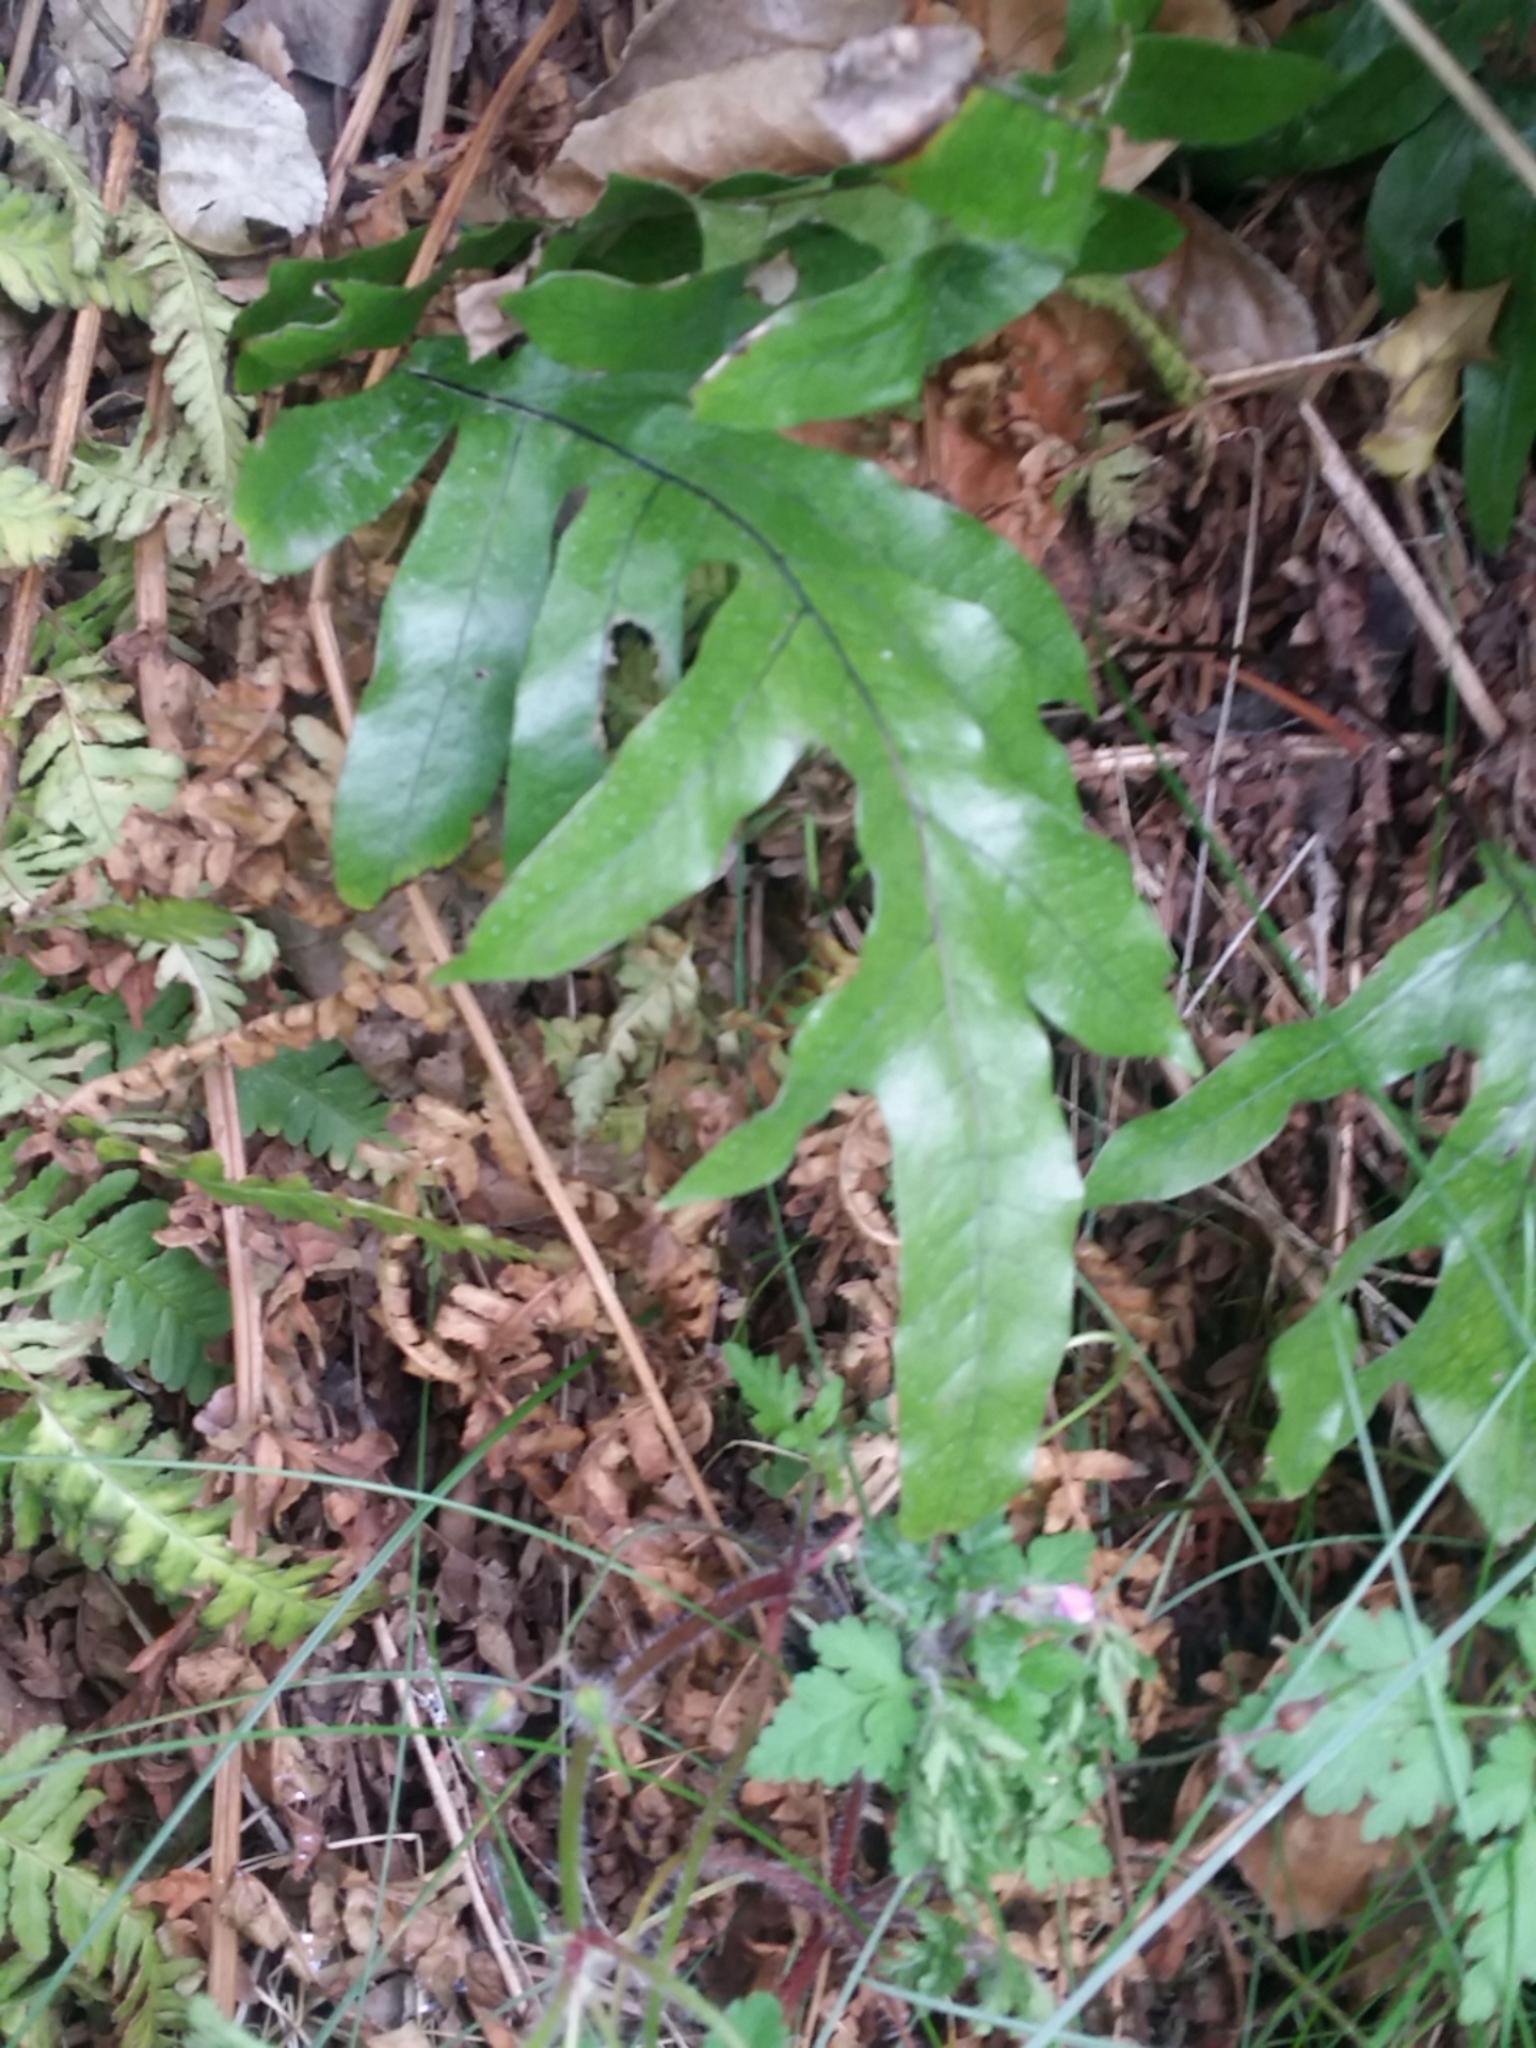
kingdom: Plantae
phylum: Tracheophyta
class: Polypodiopsida
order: Polypodiales
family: Polypodiaceae
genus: Lecanopteris
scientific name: Lecanopteris pustulata
